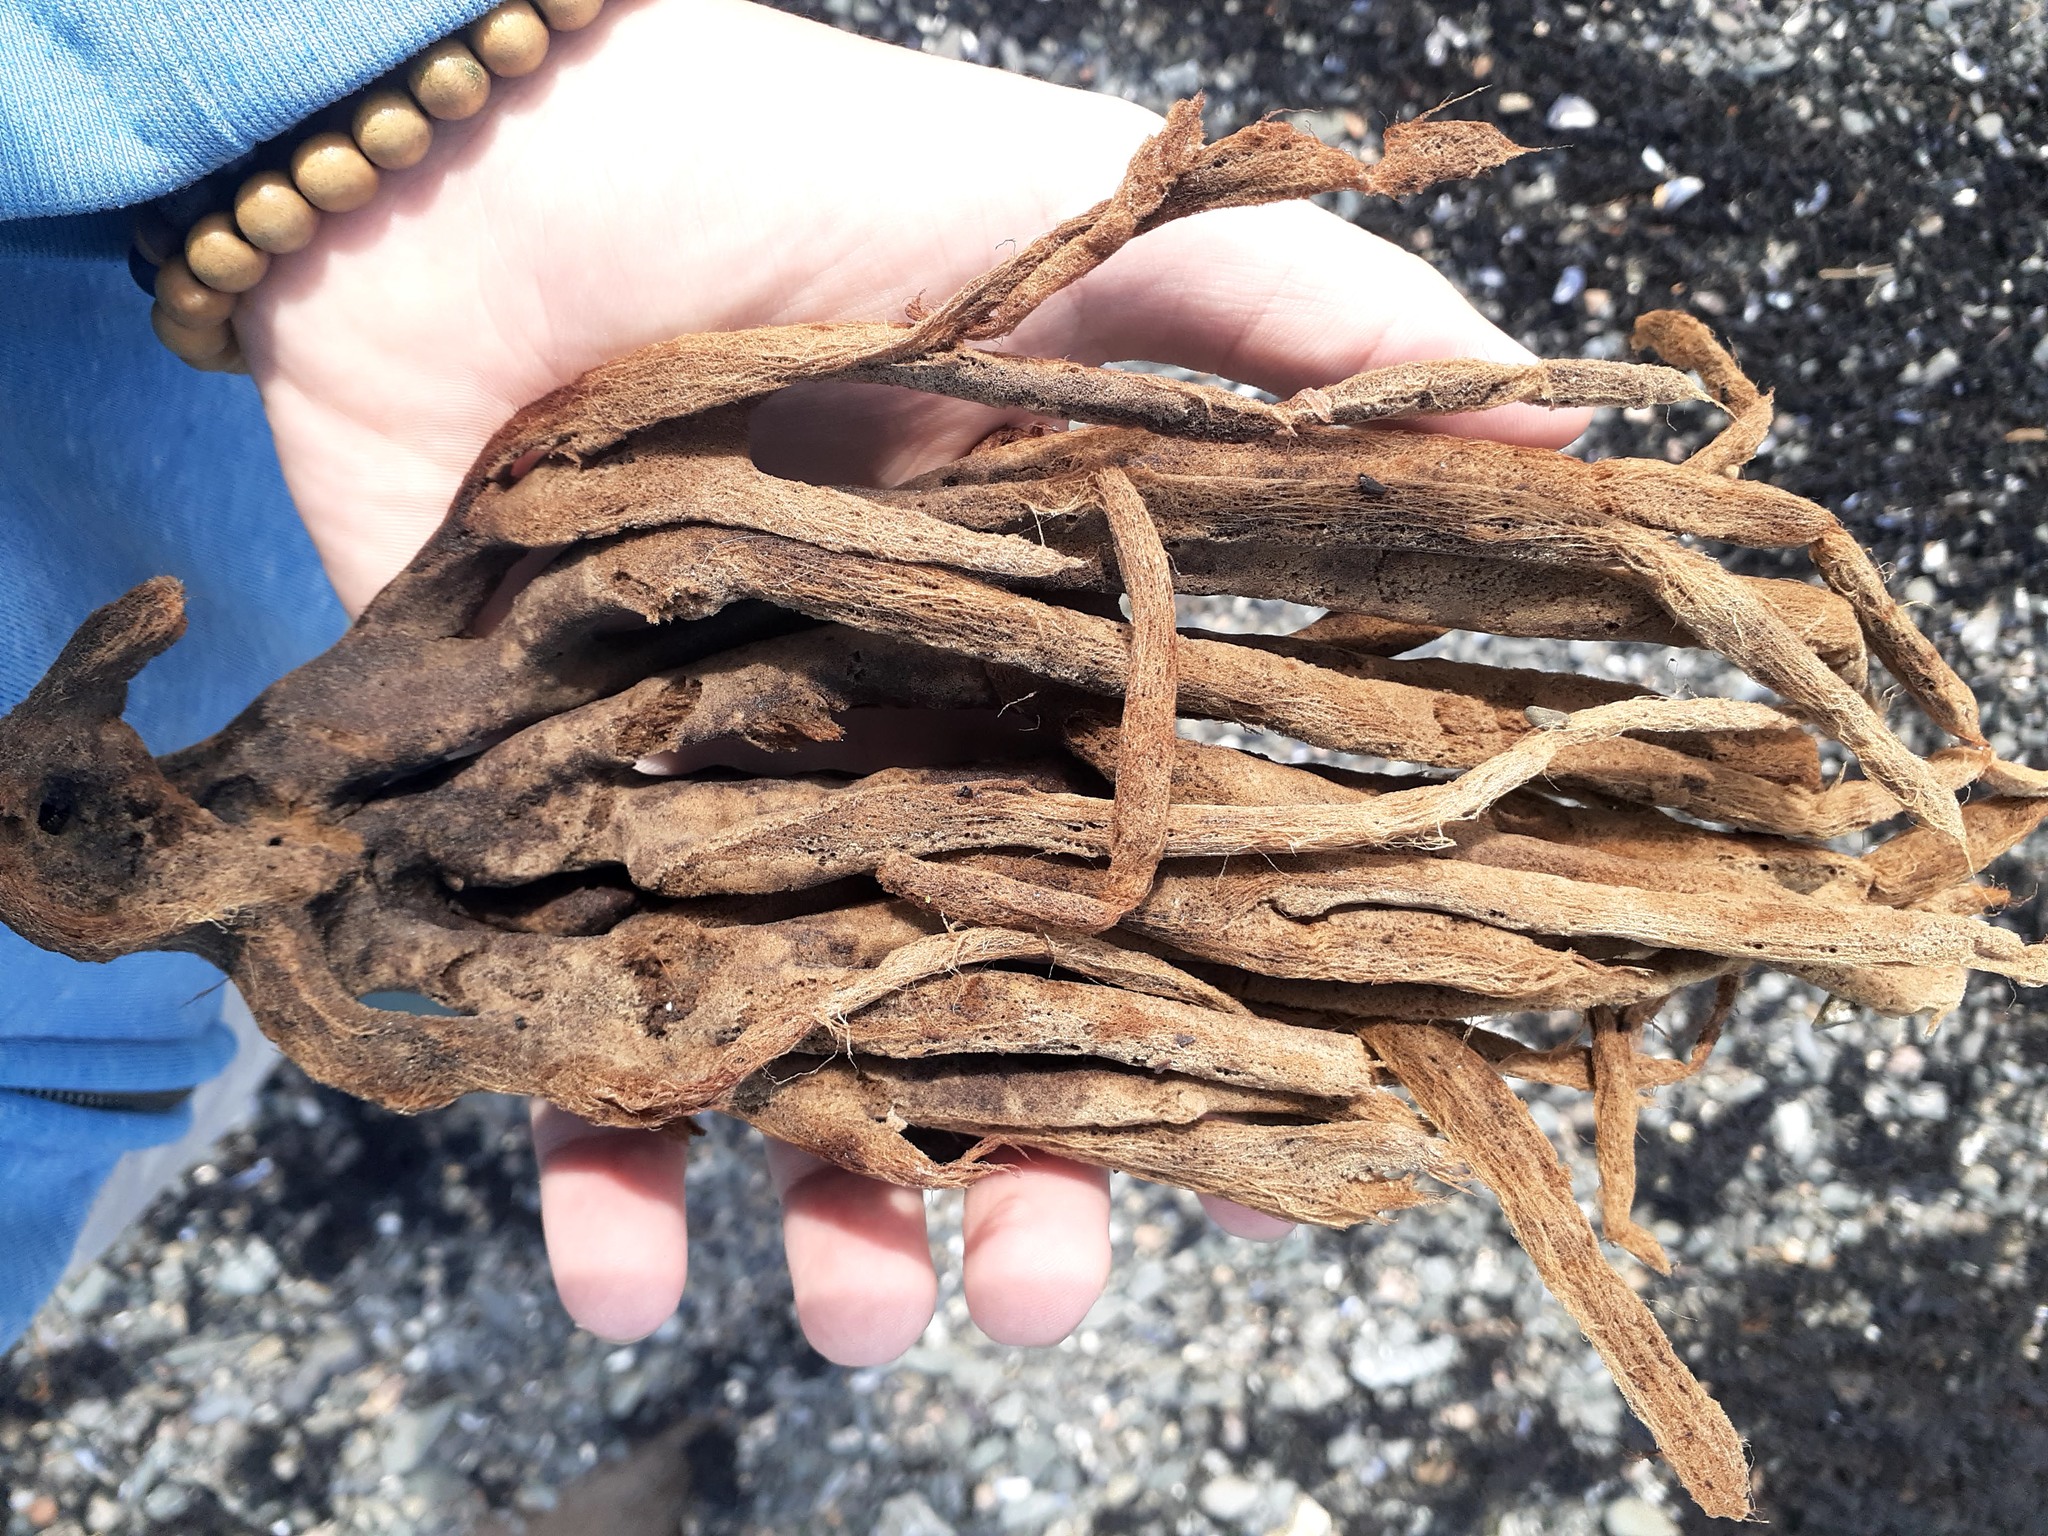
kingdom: Animalia
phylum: Porifera
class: Demospongiae
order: Haplosclerida
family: Chalinidae
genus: Haliclona
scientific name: Haliclona oculata
